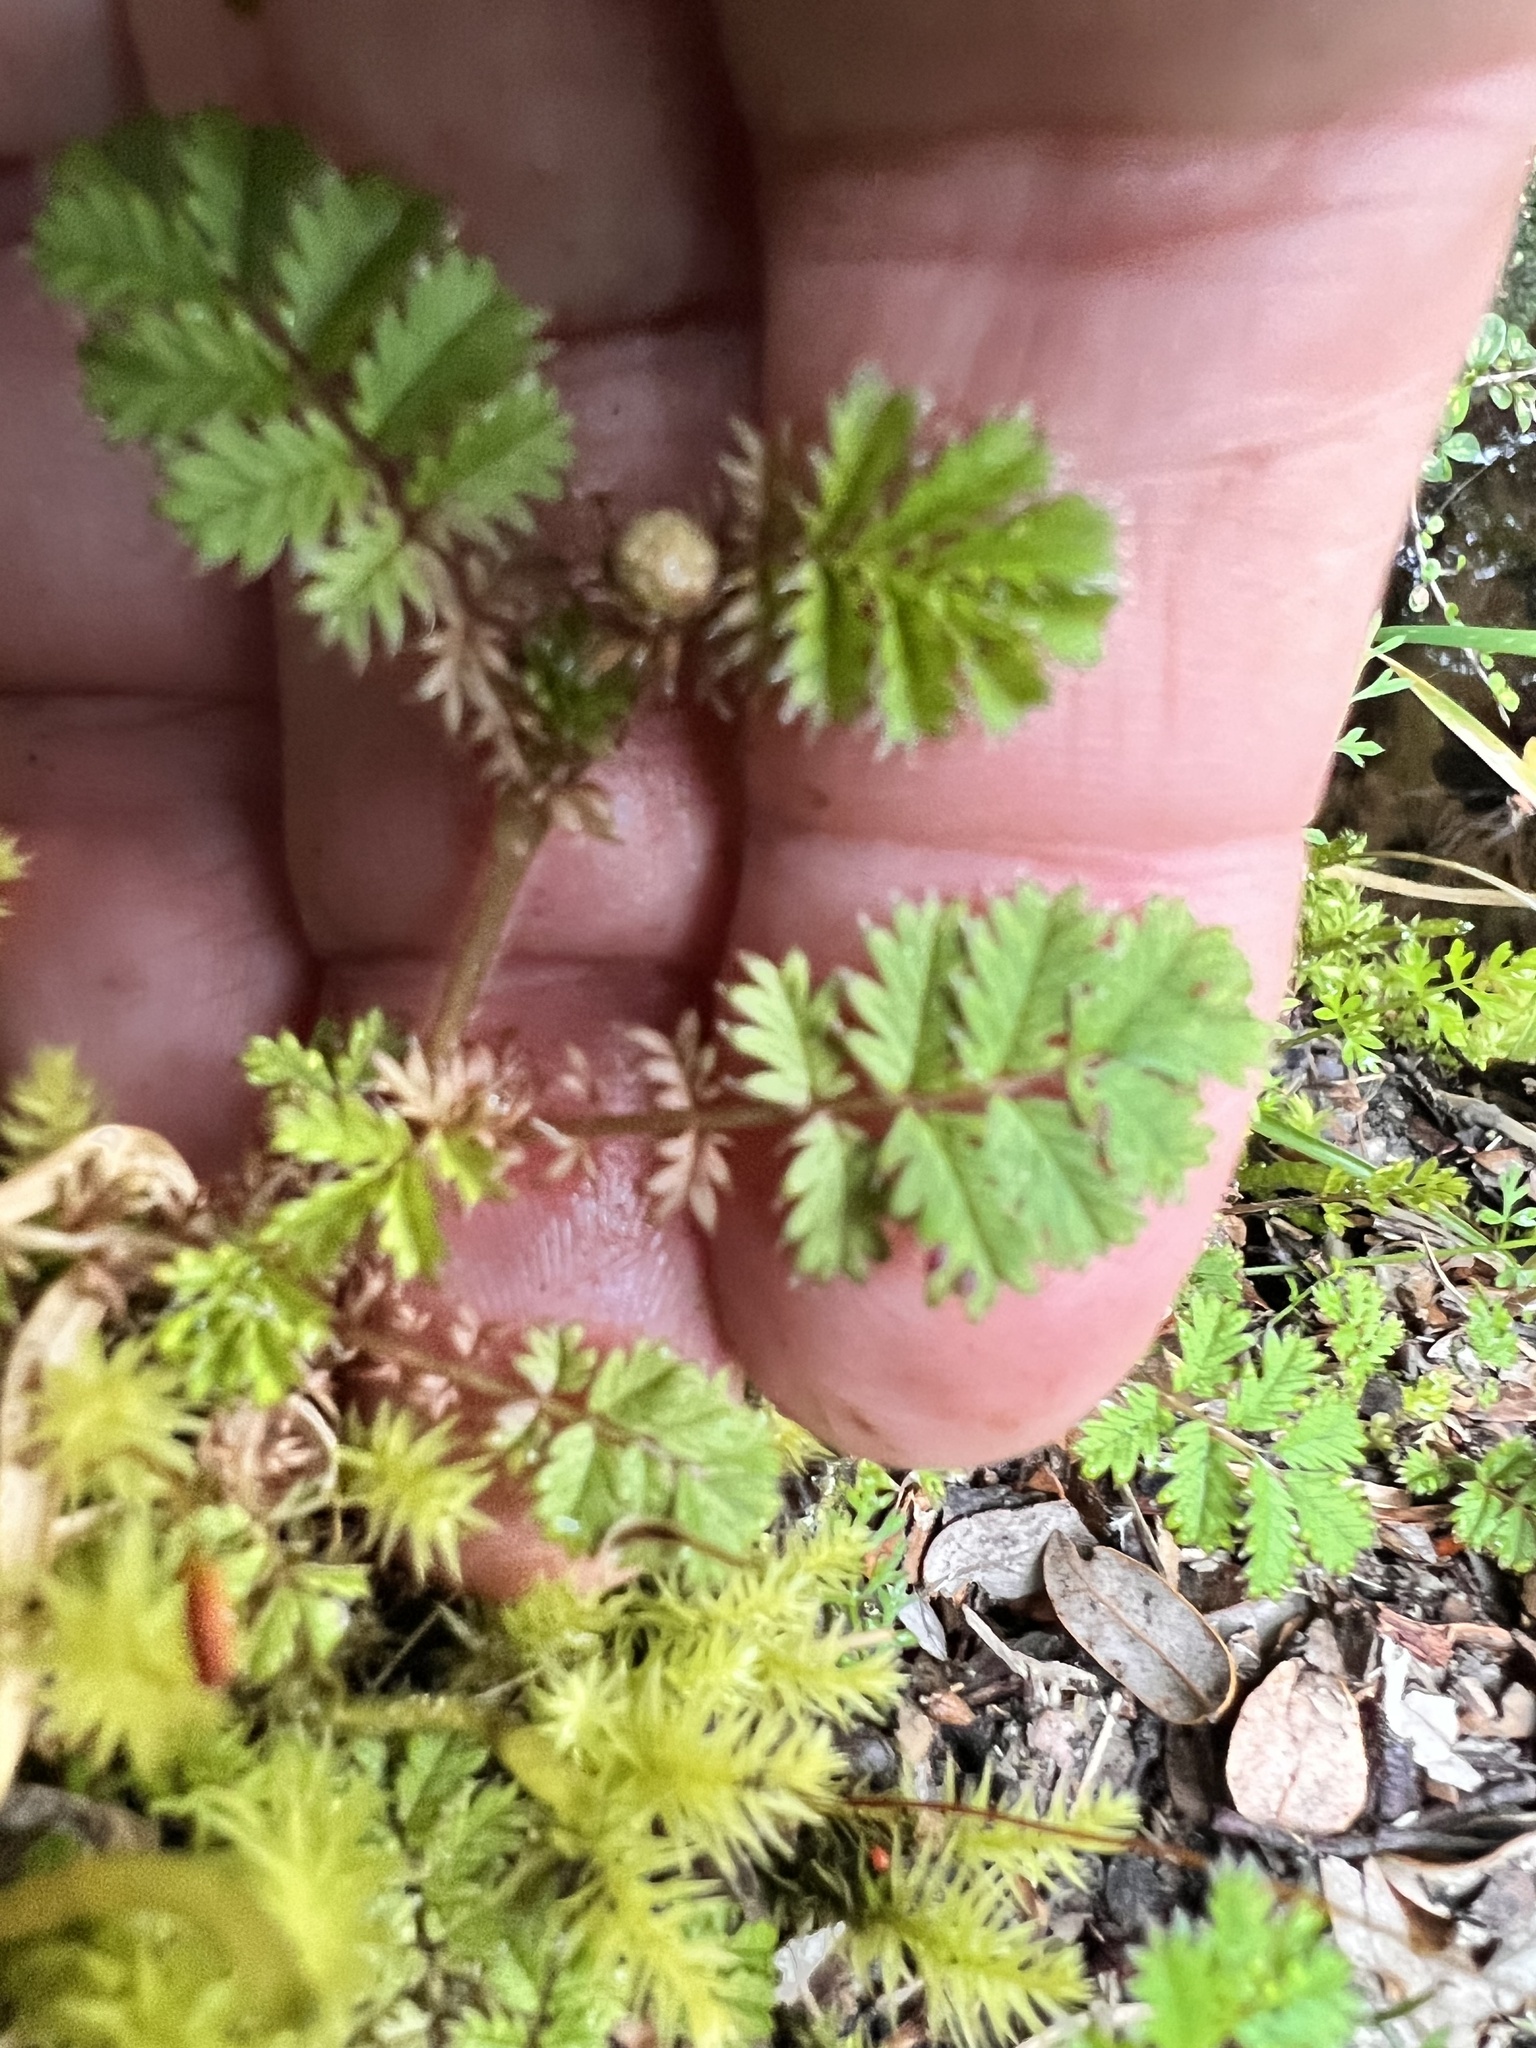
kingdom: Plantae
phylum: Tracheophyta
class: Magnoliopsida
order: Rosales
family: Rosaceae
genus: Acaena
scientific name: Acaena anserinifolia
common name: Bronze pirri-pirri-bur
